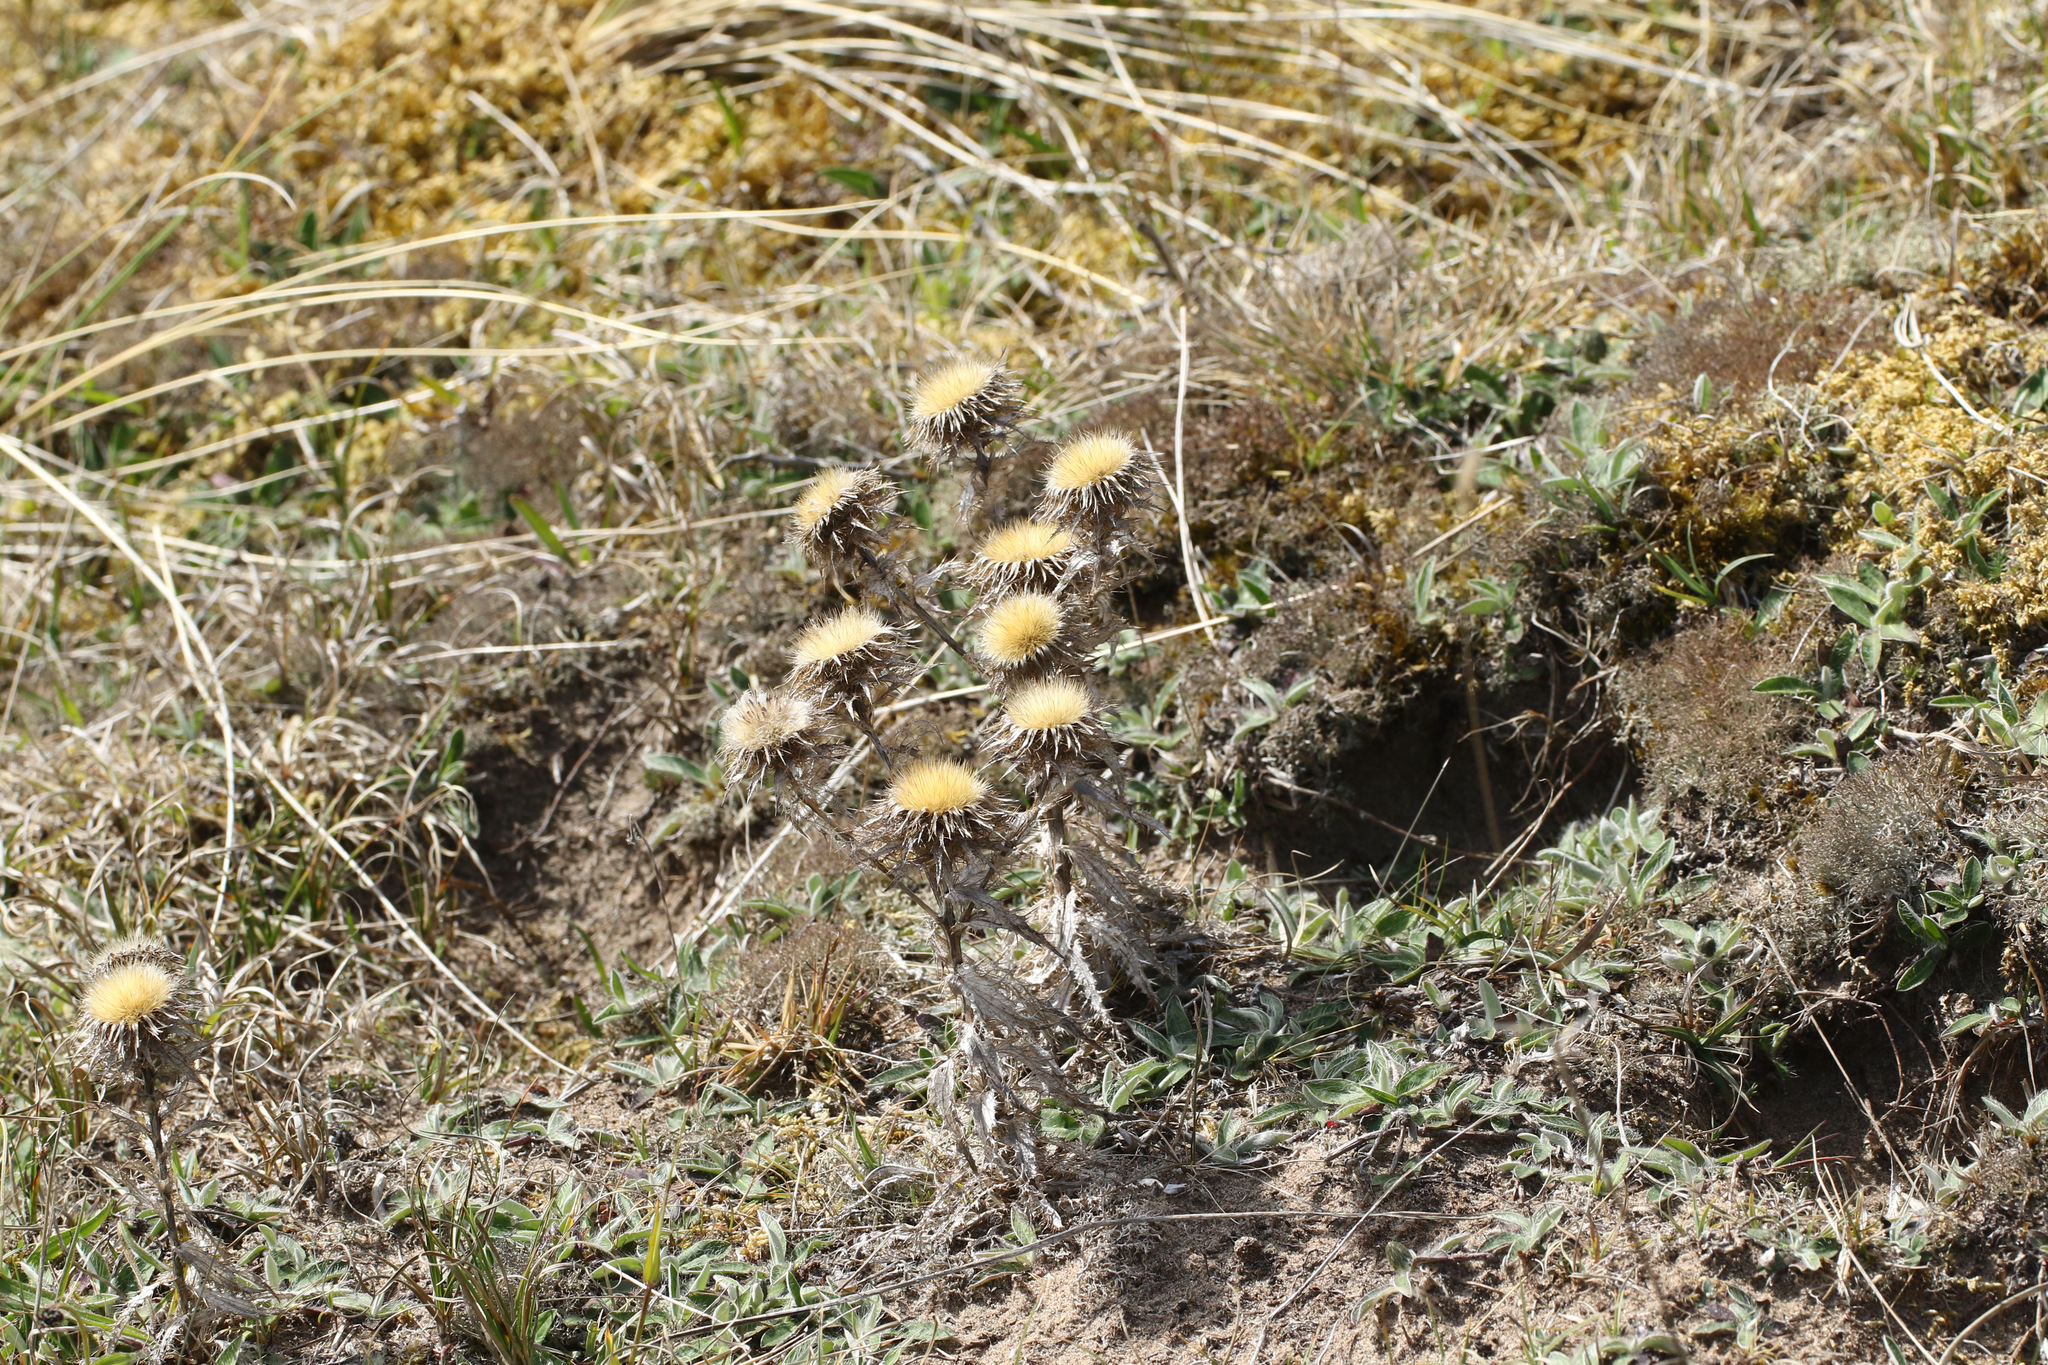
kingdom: Plantae
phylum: Tracheophyta
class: Magnoliopsida
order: Asterales
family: Asteraceae
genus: Carlina
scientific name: Carlina vulgaris
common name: Carline thistle
